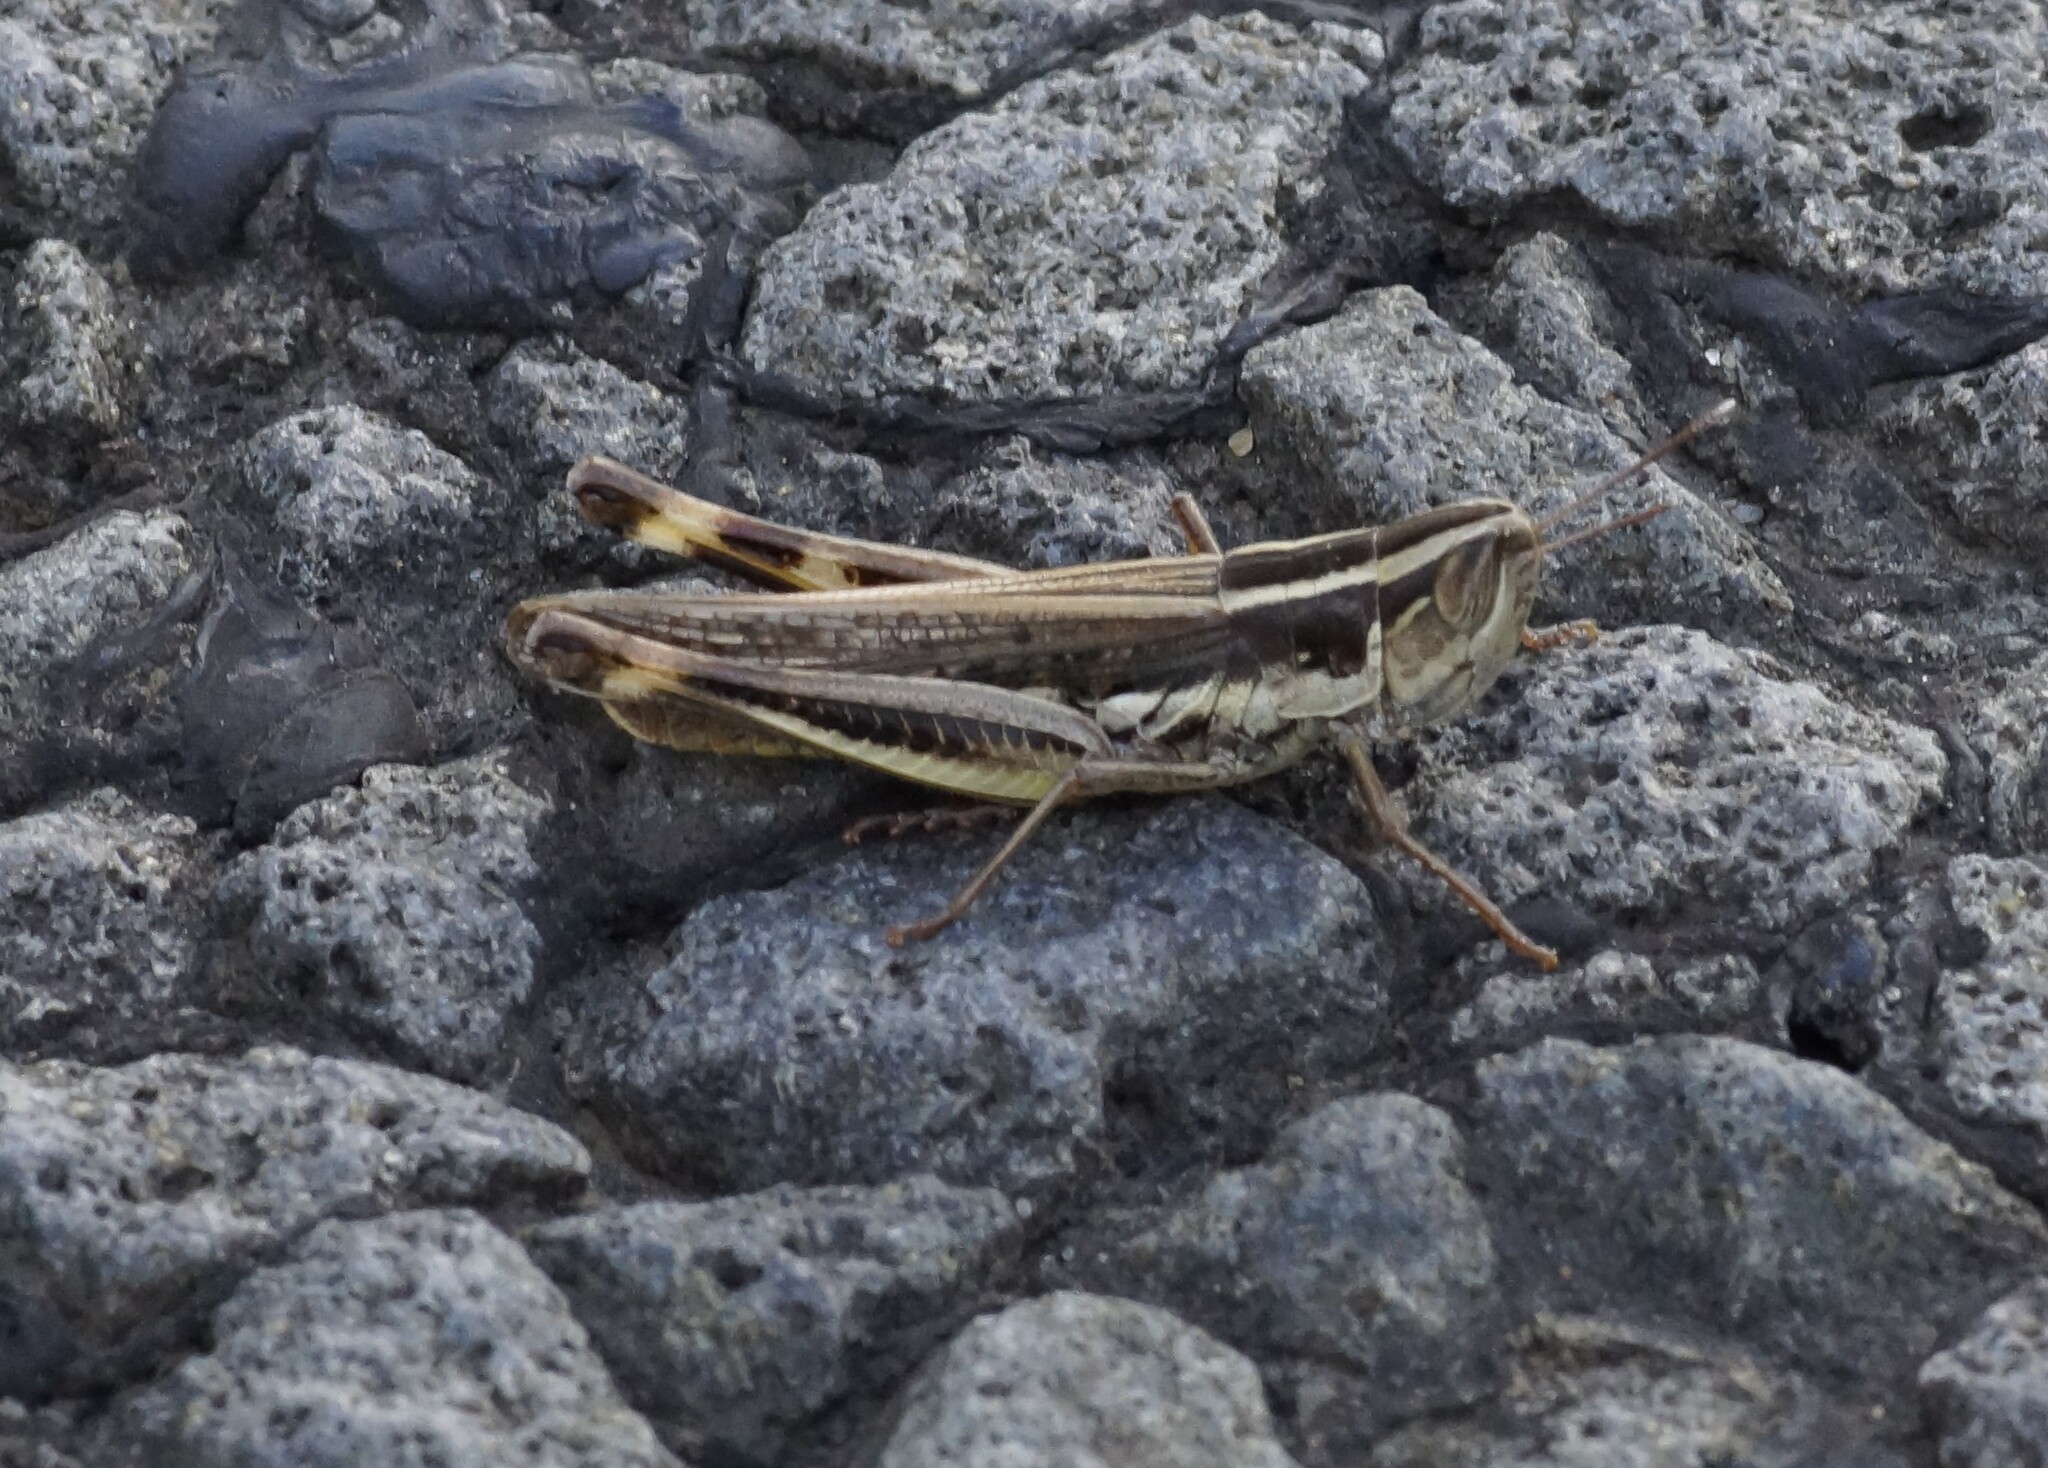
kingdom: Animalia
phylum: Arthropoda
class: Insecta
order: Orthoptera
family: Acrididae
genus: Macrotona
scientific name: Macrotona securiformis
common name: Inland macrotona
